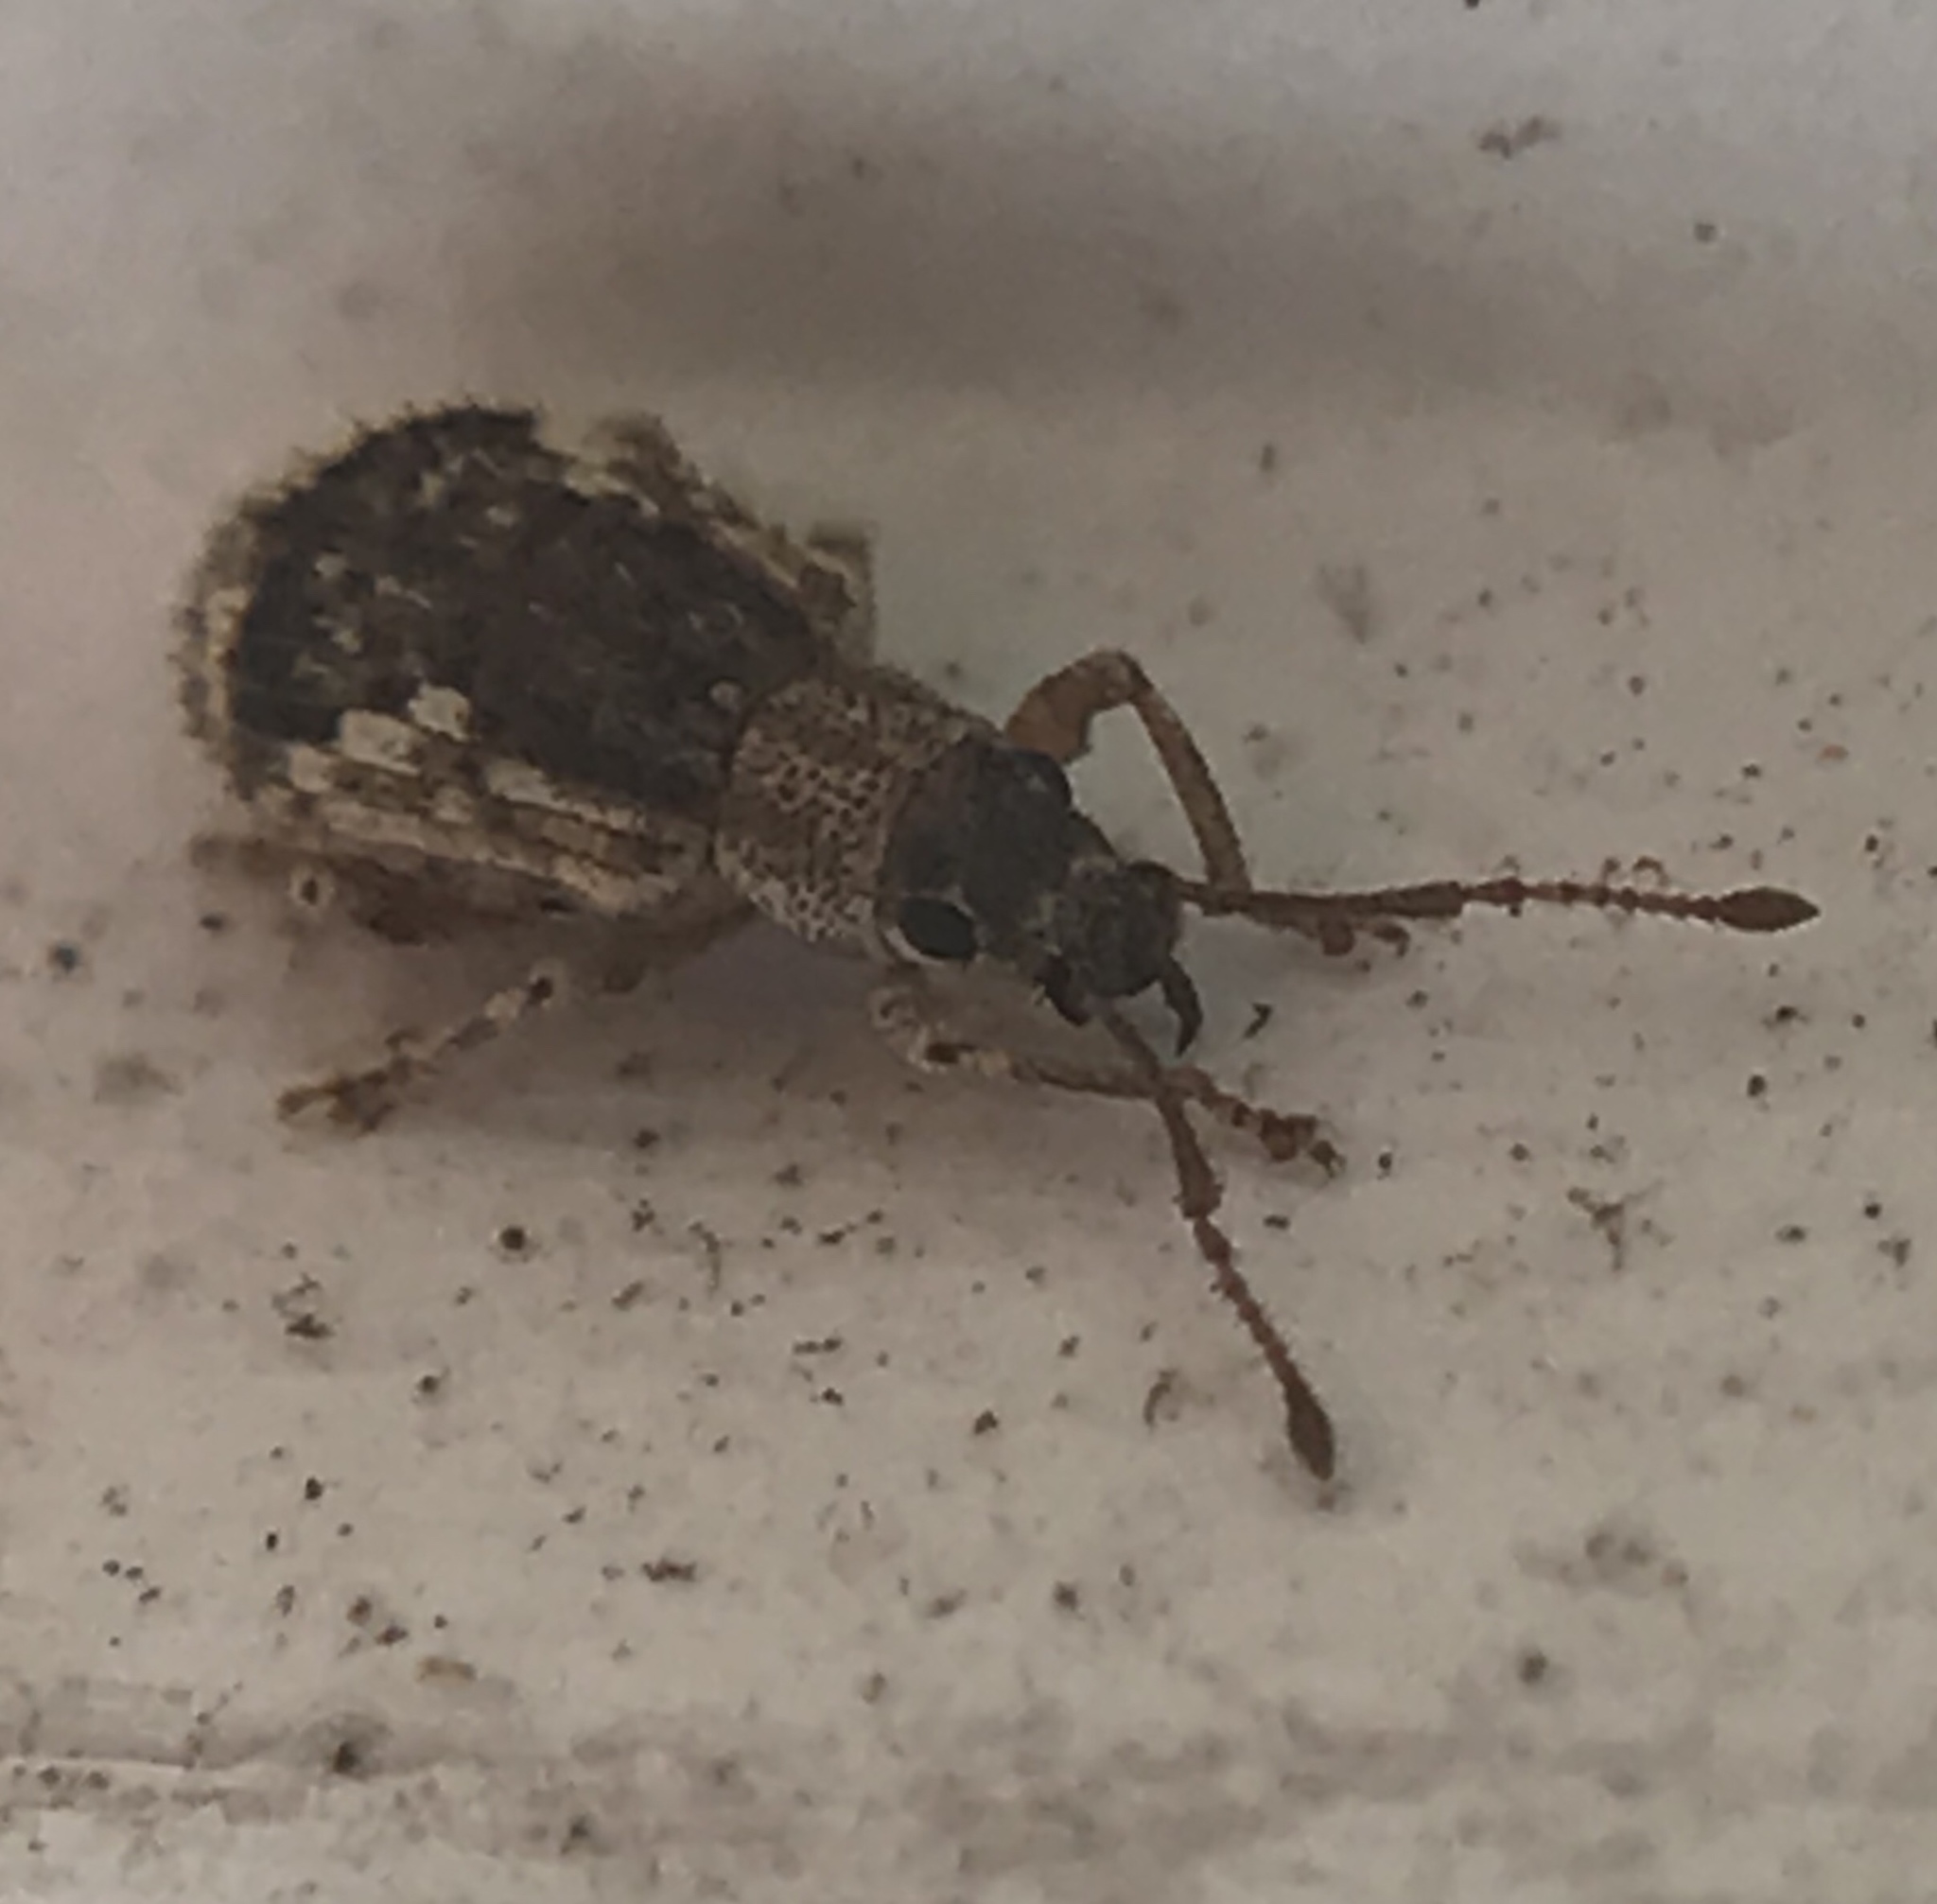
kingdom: Animalia
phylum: Arthropoda
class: Insecta
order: Coleoptera
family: Curculionidae
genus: Pseudoedophrys
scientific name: Pseudoedophrys hilleri
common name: Weevil
